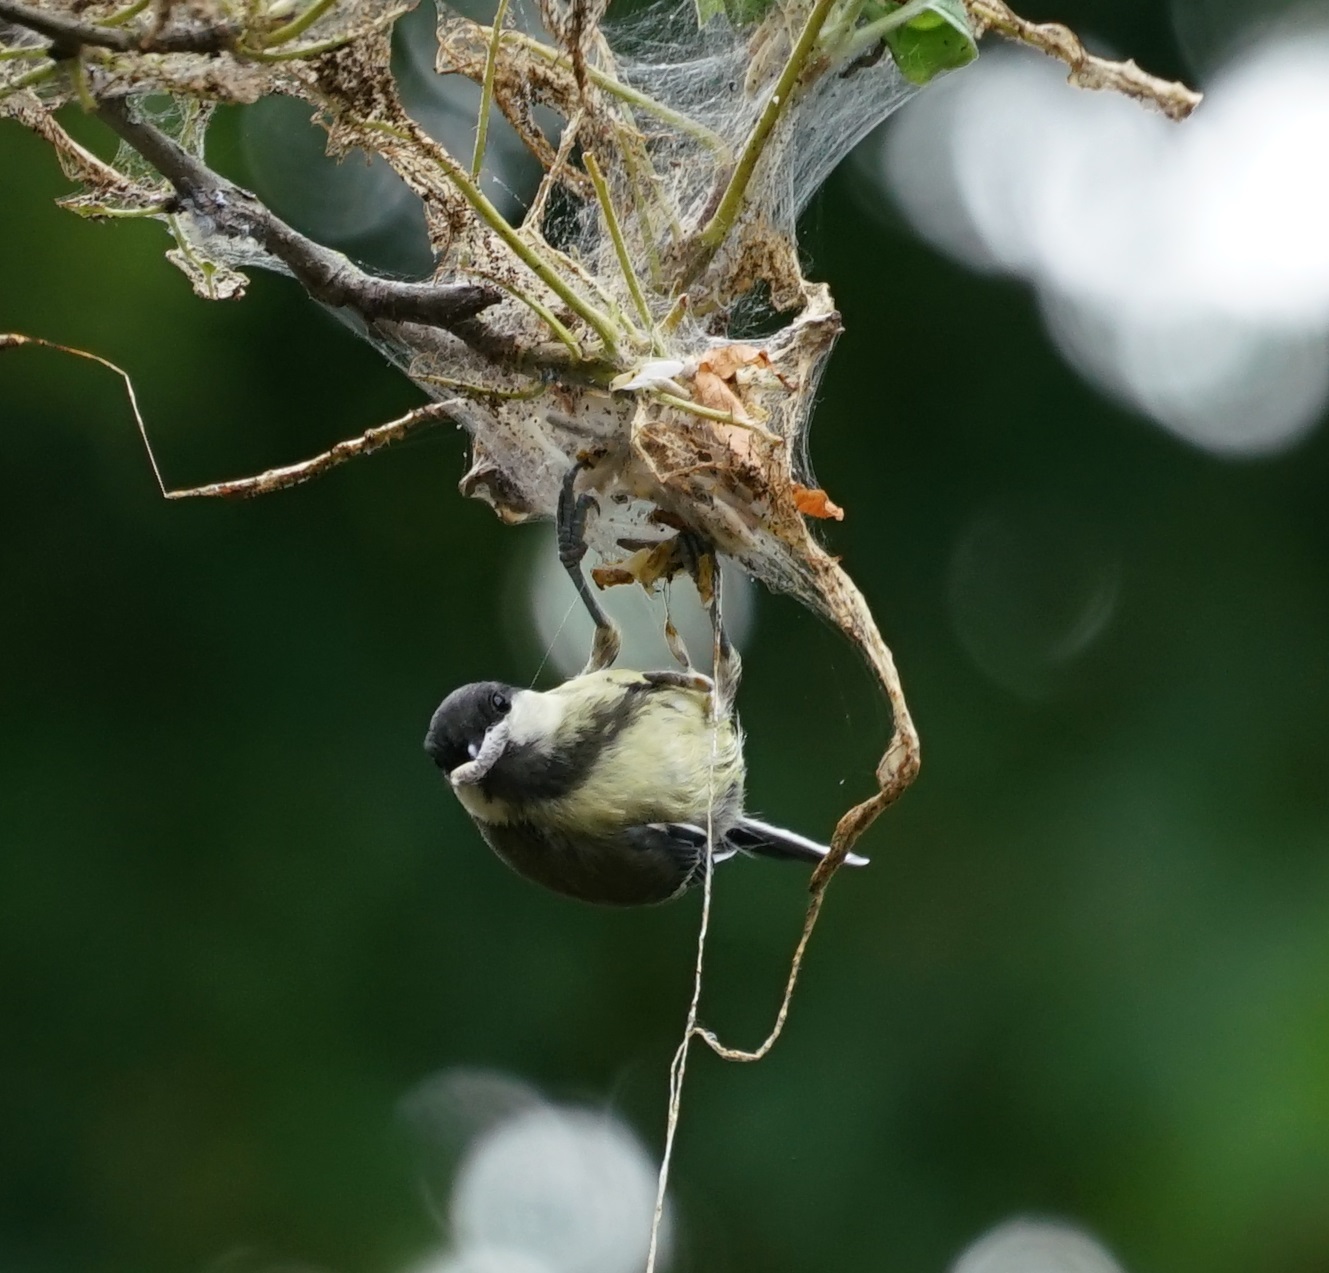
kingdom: Animalia
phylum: Chordata
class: Aves
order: Passeriformes
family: Paridae
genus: Parus
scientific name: Parus major
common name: Great tit
